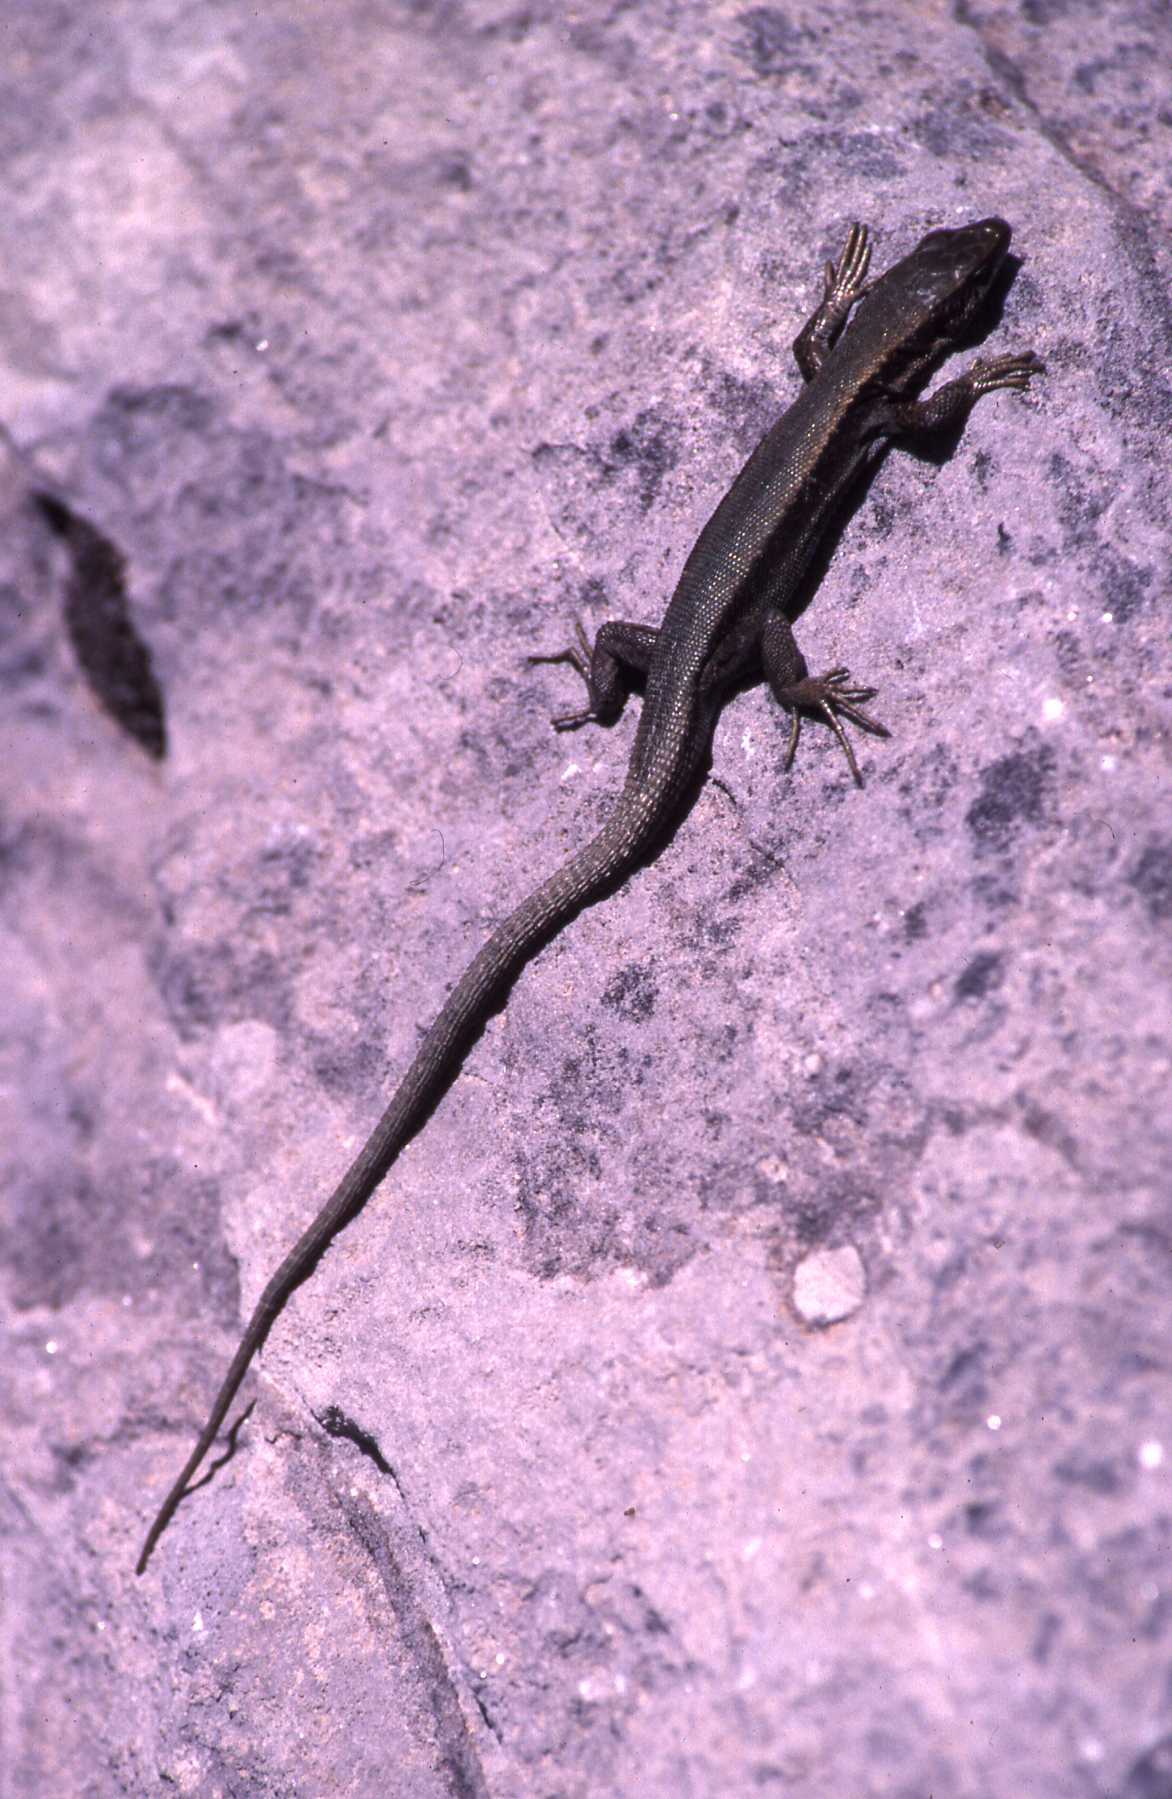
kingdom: Animalia
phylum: Chordata
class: Squamata
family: Lacertidae
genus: Iberolacerta
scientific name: Iberolacerta bonnali
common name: Pyrenean rock lizard
